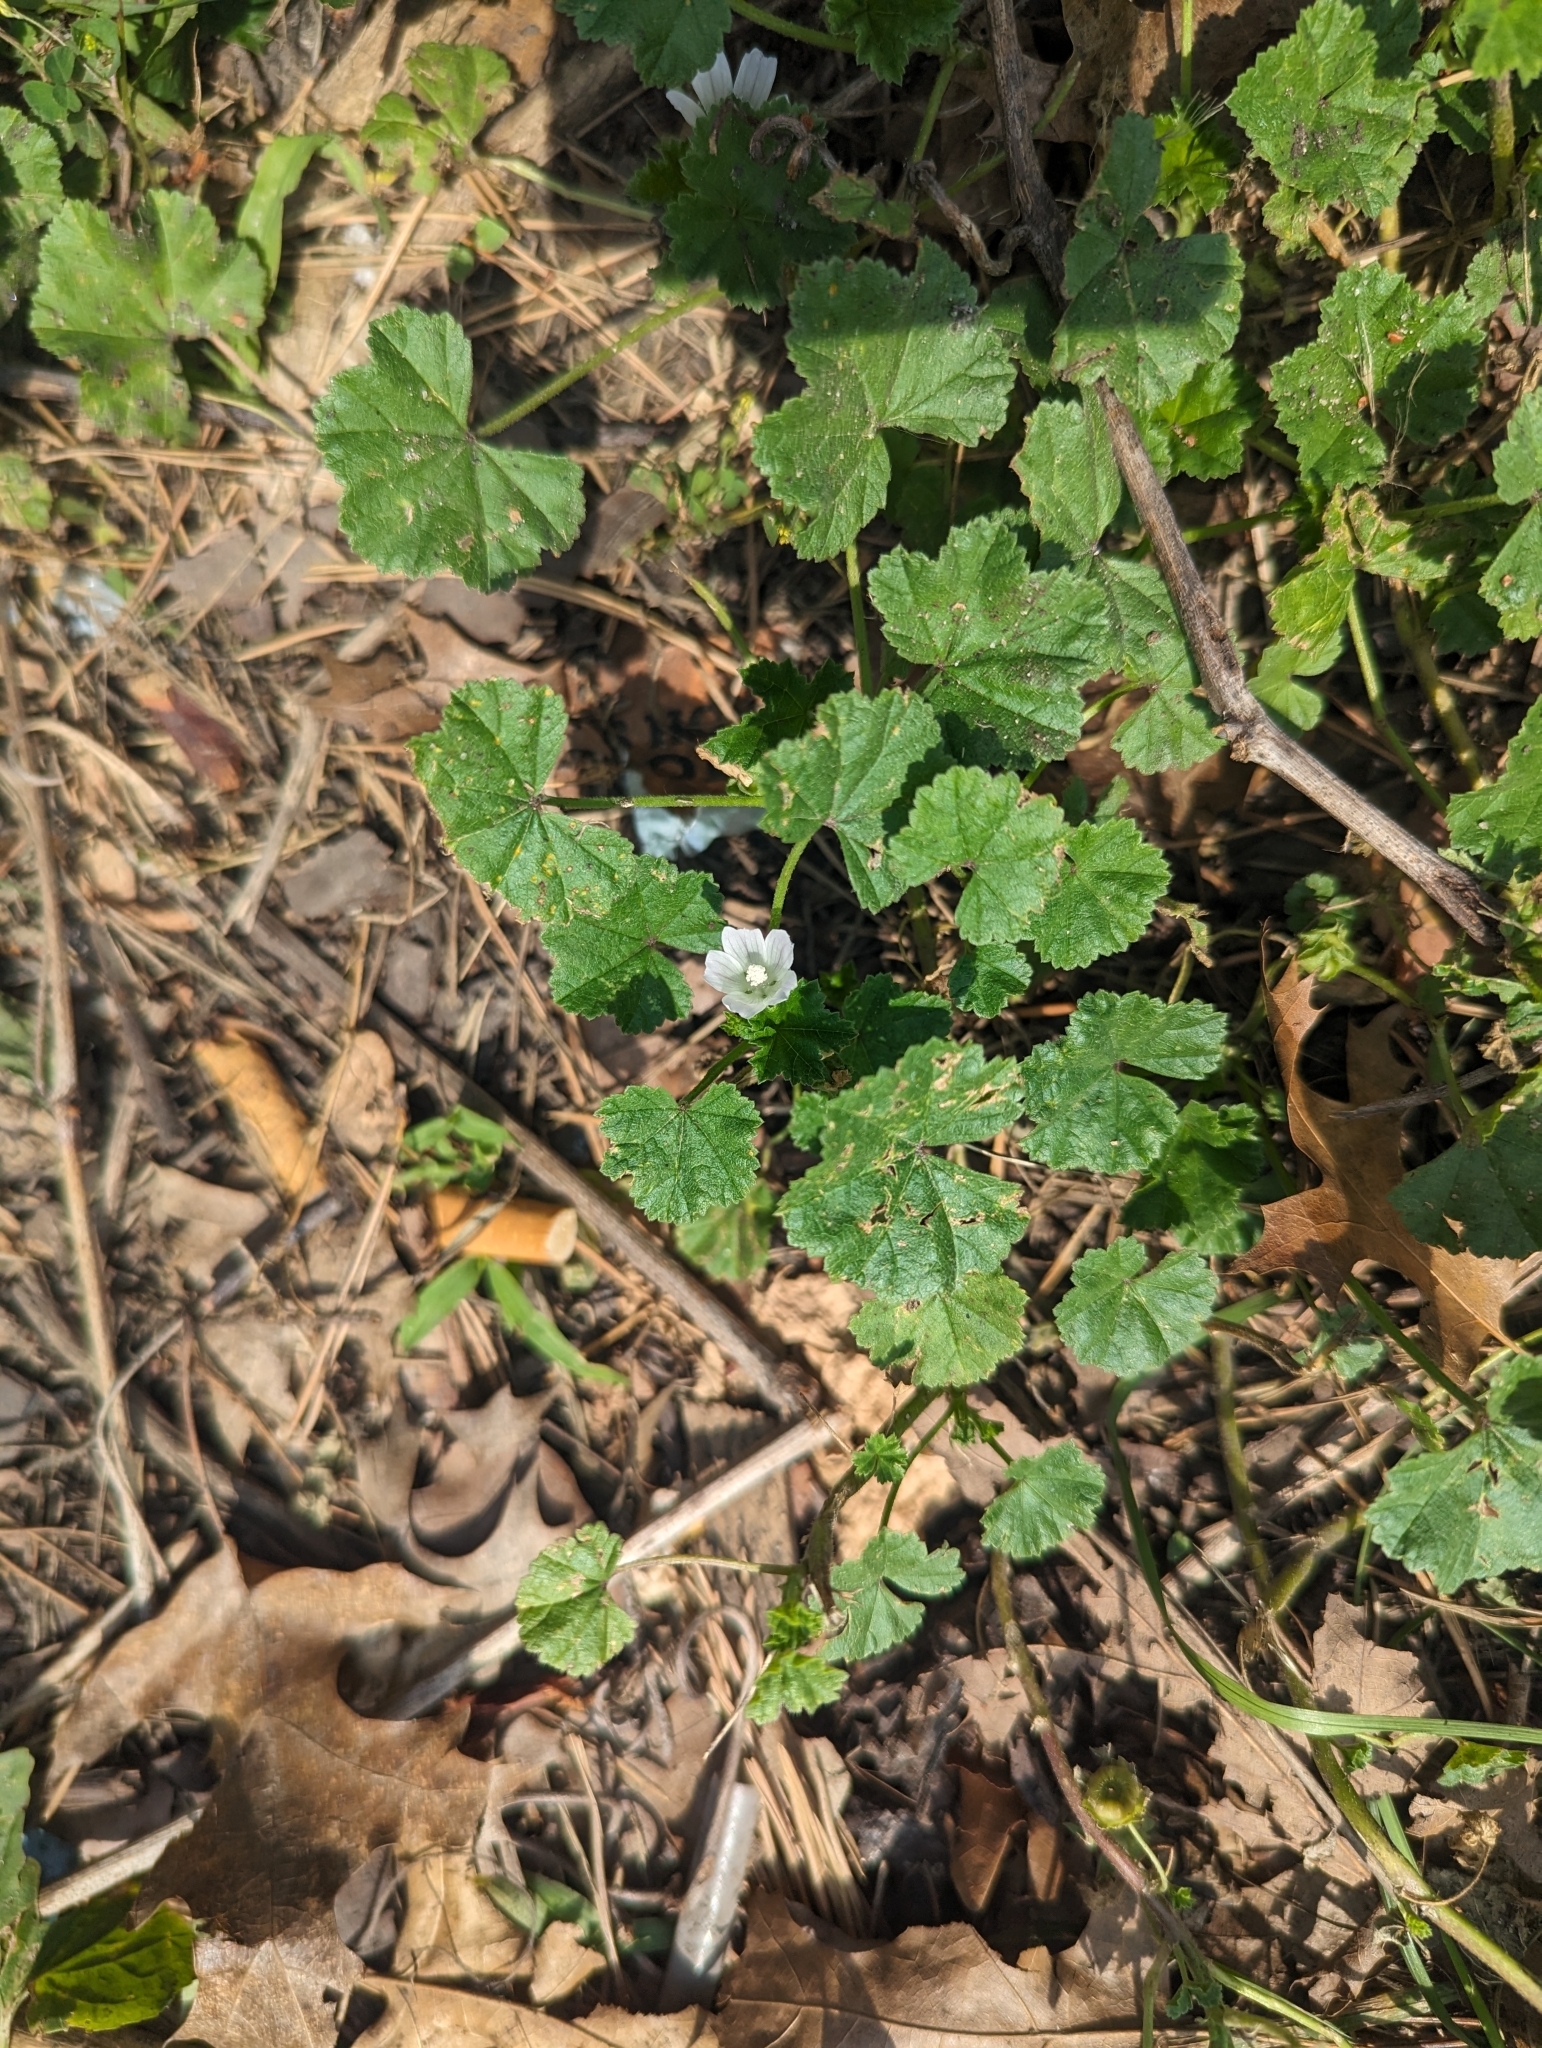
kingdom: Plantae
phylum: Tracheophyta
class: Magnoliopsida
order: Malvales
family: Malvaceae
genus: Malva
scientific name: Malva neglecta
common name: Common mallow
